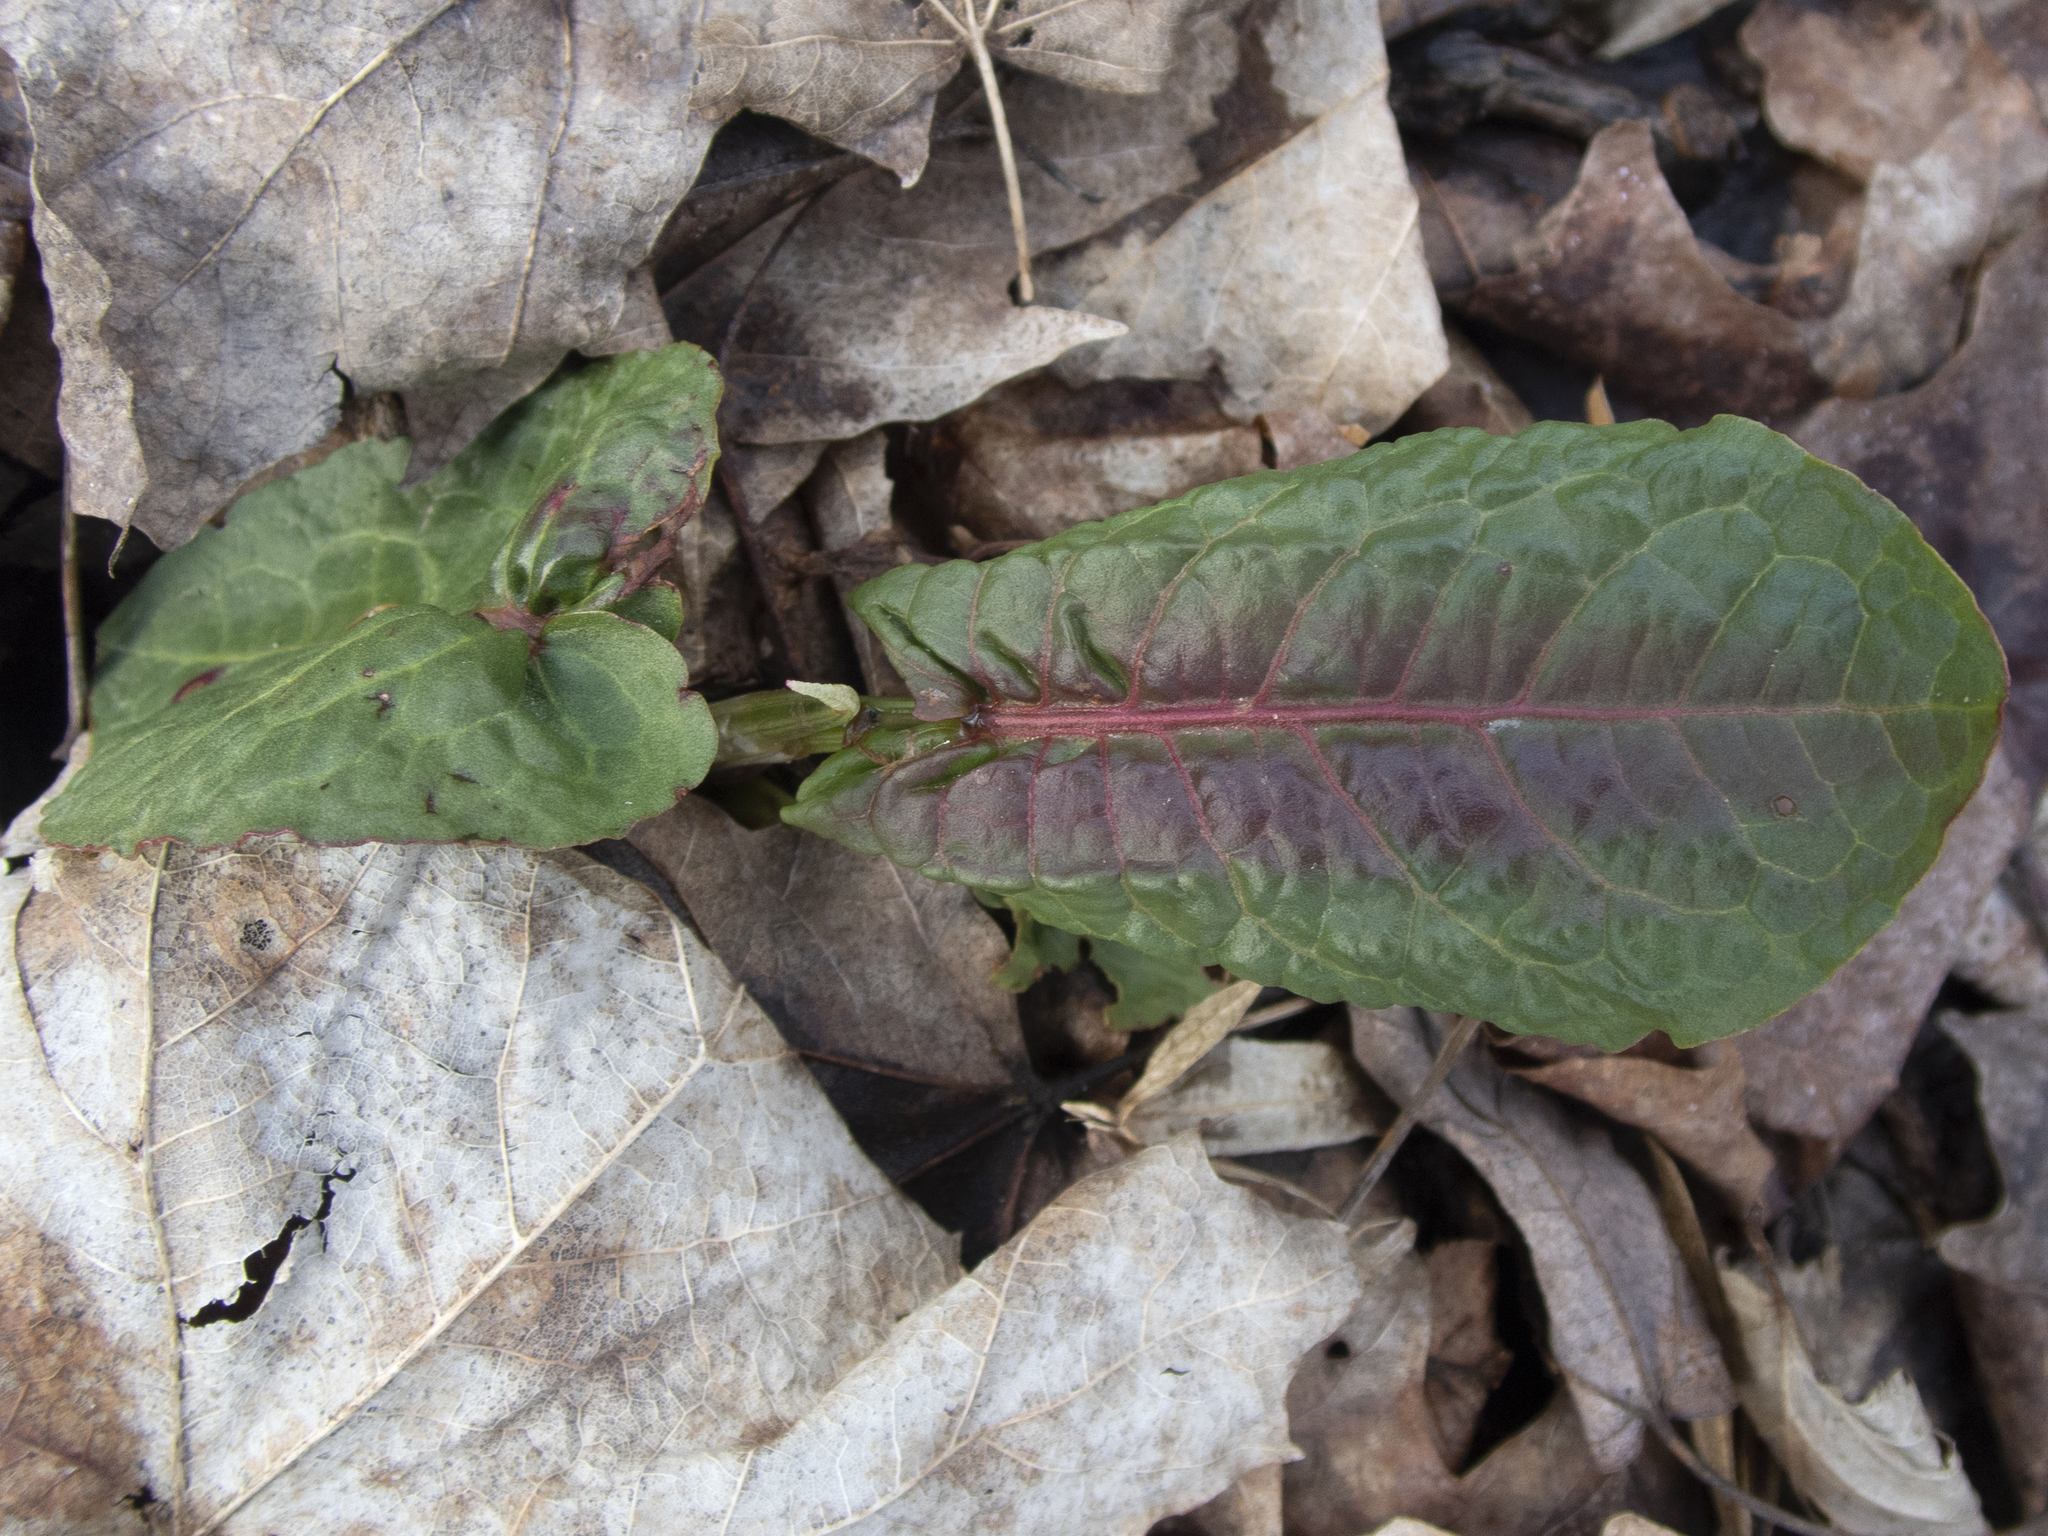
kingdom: Plantae
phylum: Tracheophyta
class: Magnoliopsida
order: Caryophyllales
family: Polygonaceae
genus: Rumex
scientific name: Rumex obtusifolius
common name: Bitter dock
